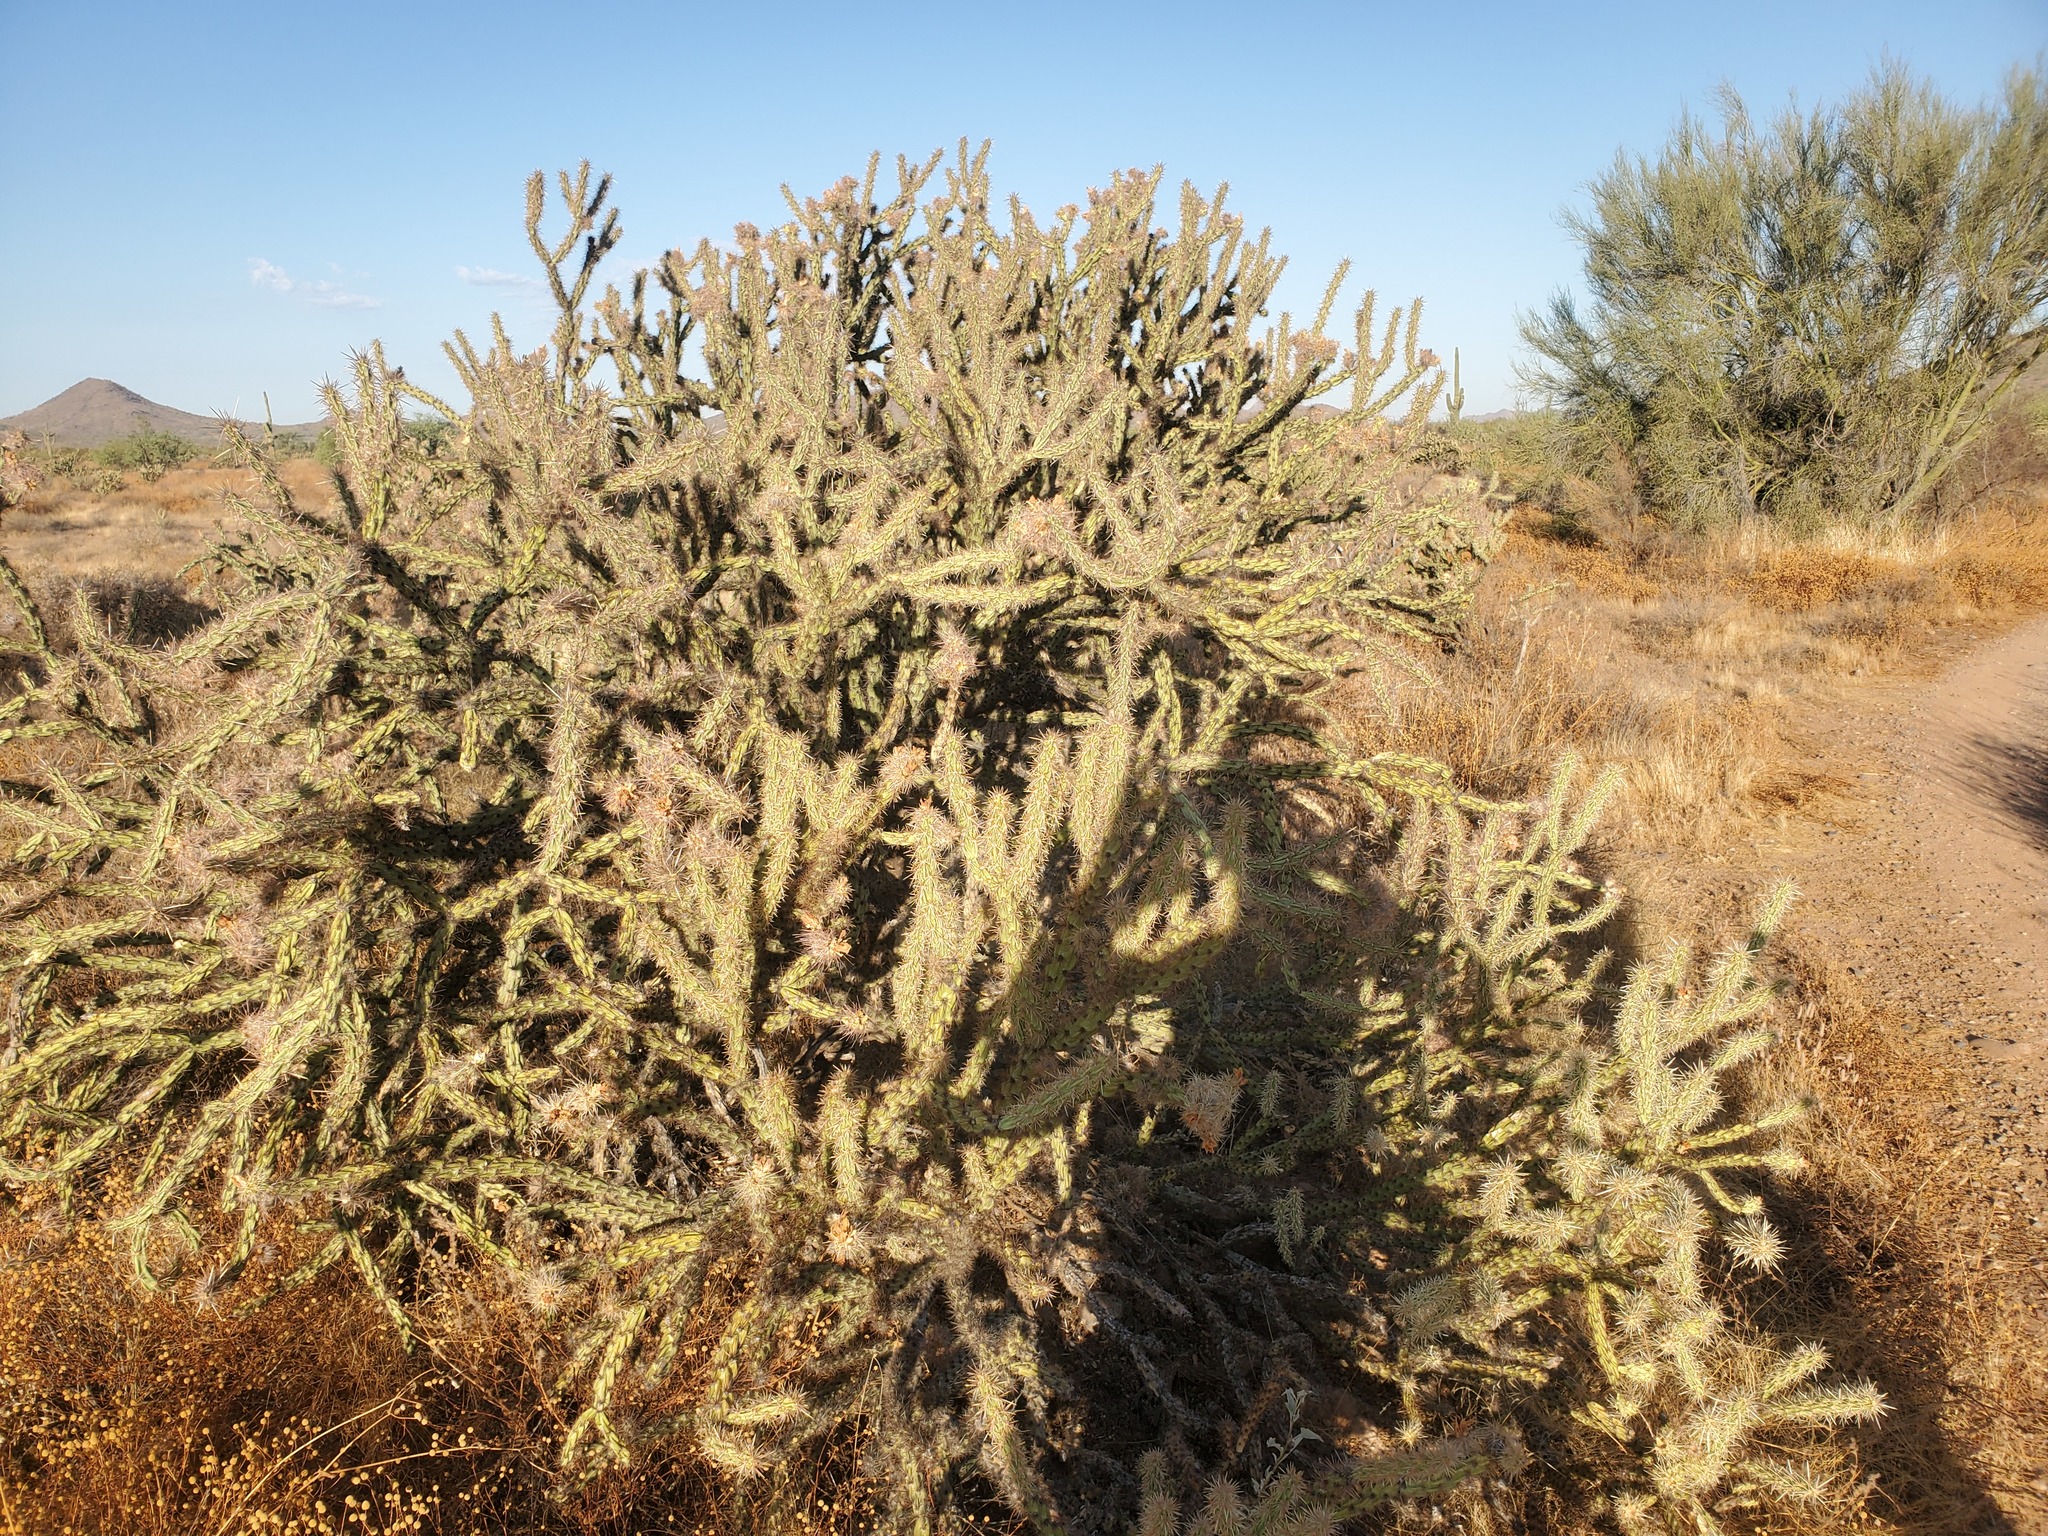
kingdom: Plantae
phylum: Tracheophyta
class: Magnoliopsida
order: Caryophyllales
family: Cactaceae
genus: Cylindropuntia
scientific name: Cylindropuntia acanthocarpa
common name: Buckhorn cholla
